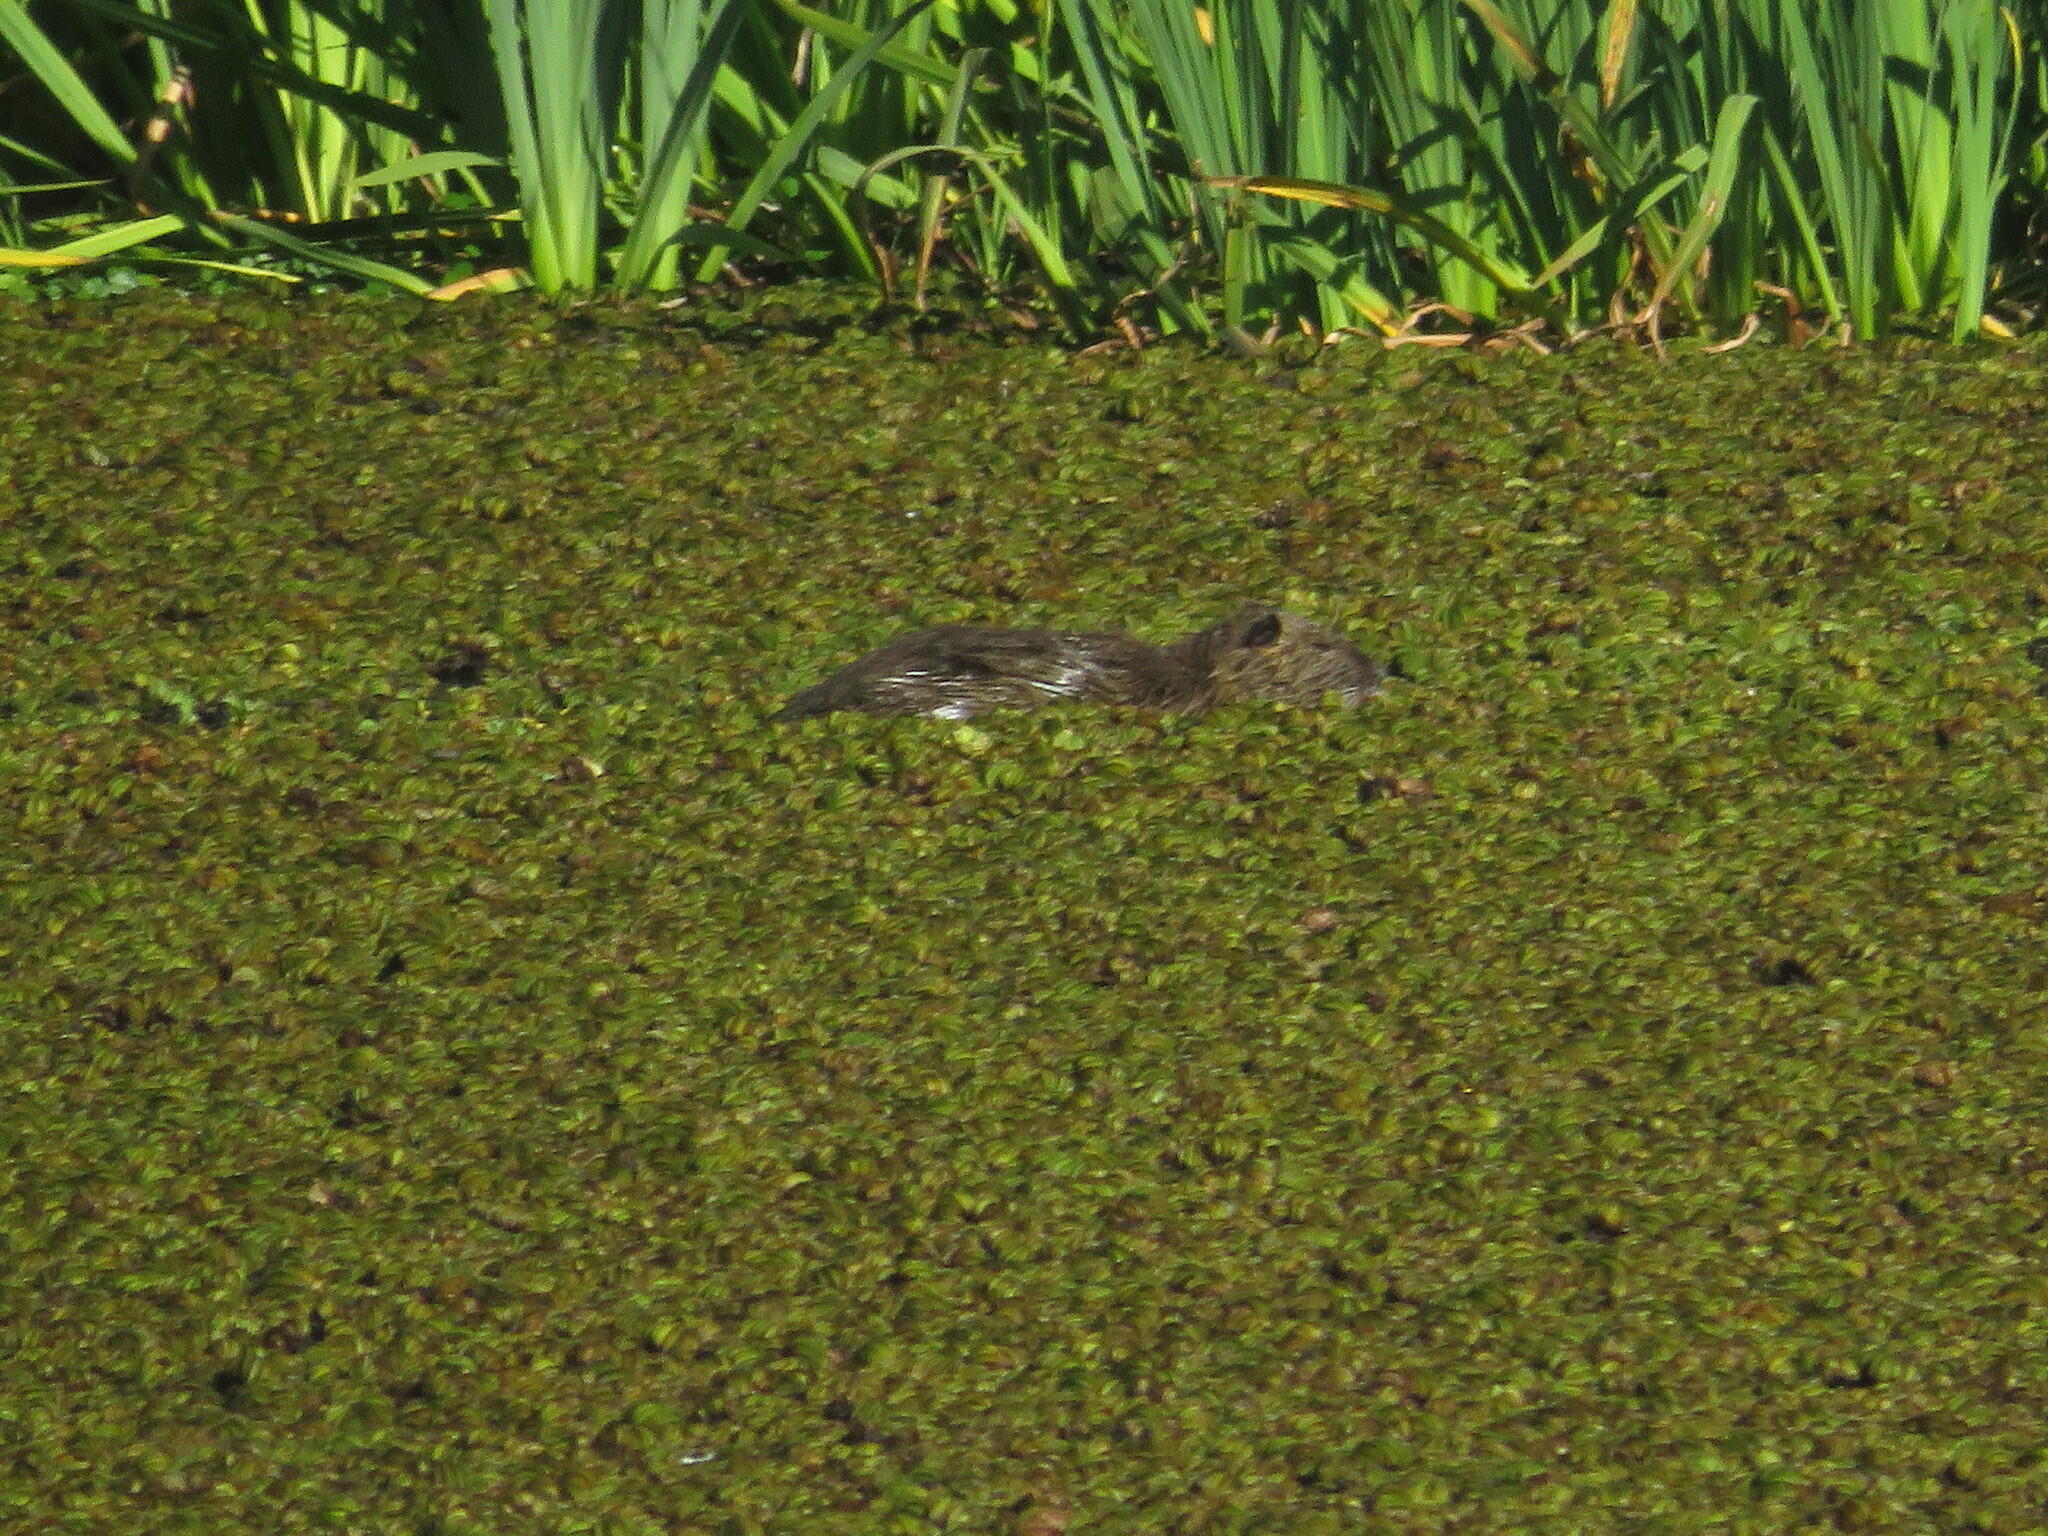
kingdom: Animalia
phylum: Chordata
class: Mammalia
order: Rodentia
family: Myocastoridae
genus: Myocastor
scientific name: Myocastor coypus
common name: Coypu
